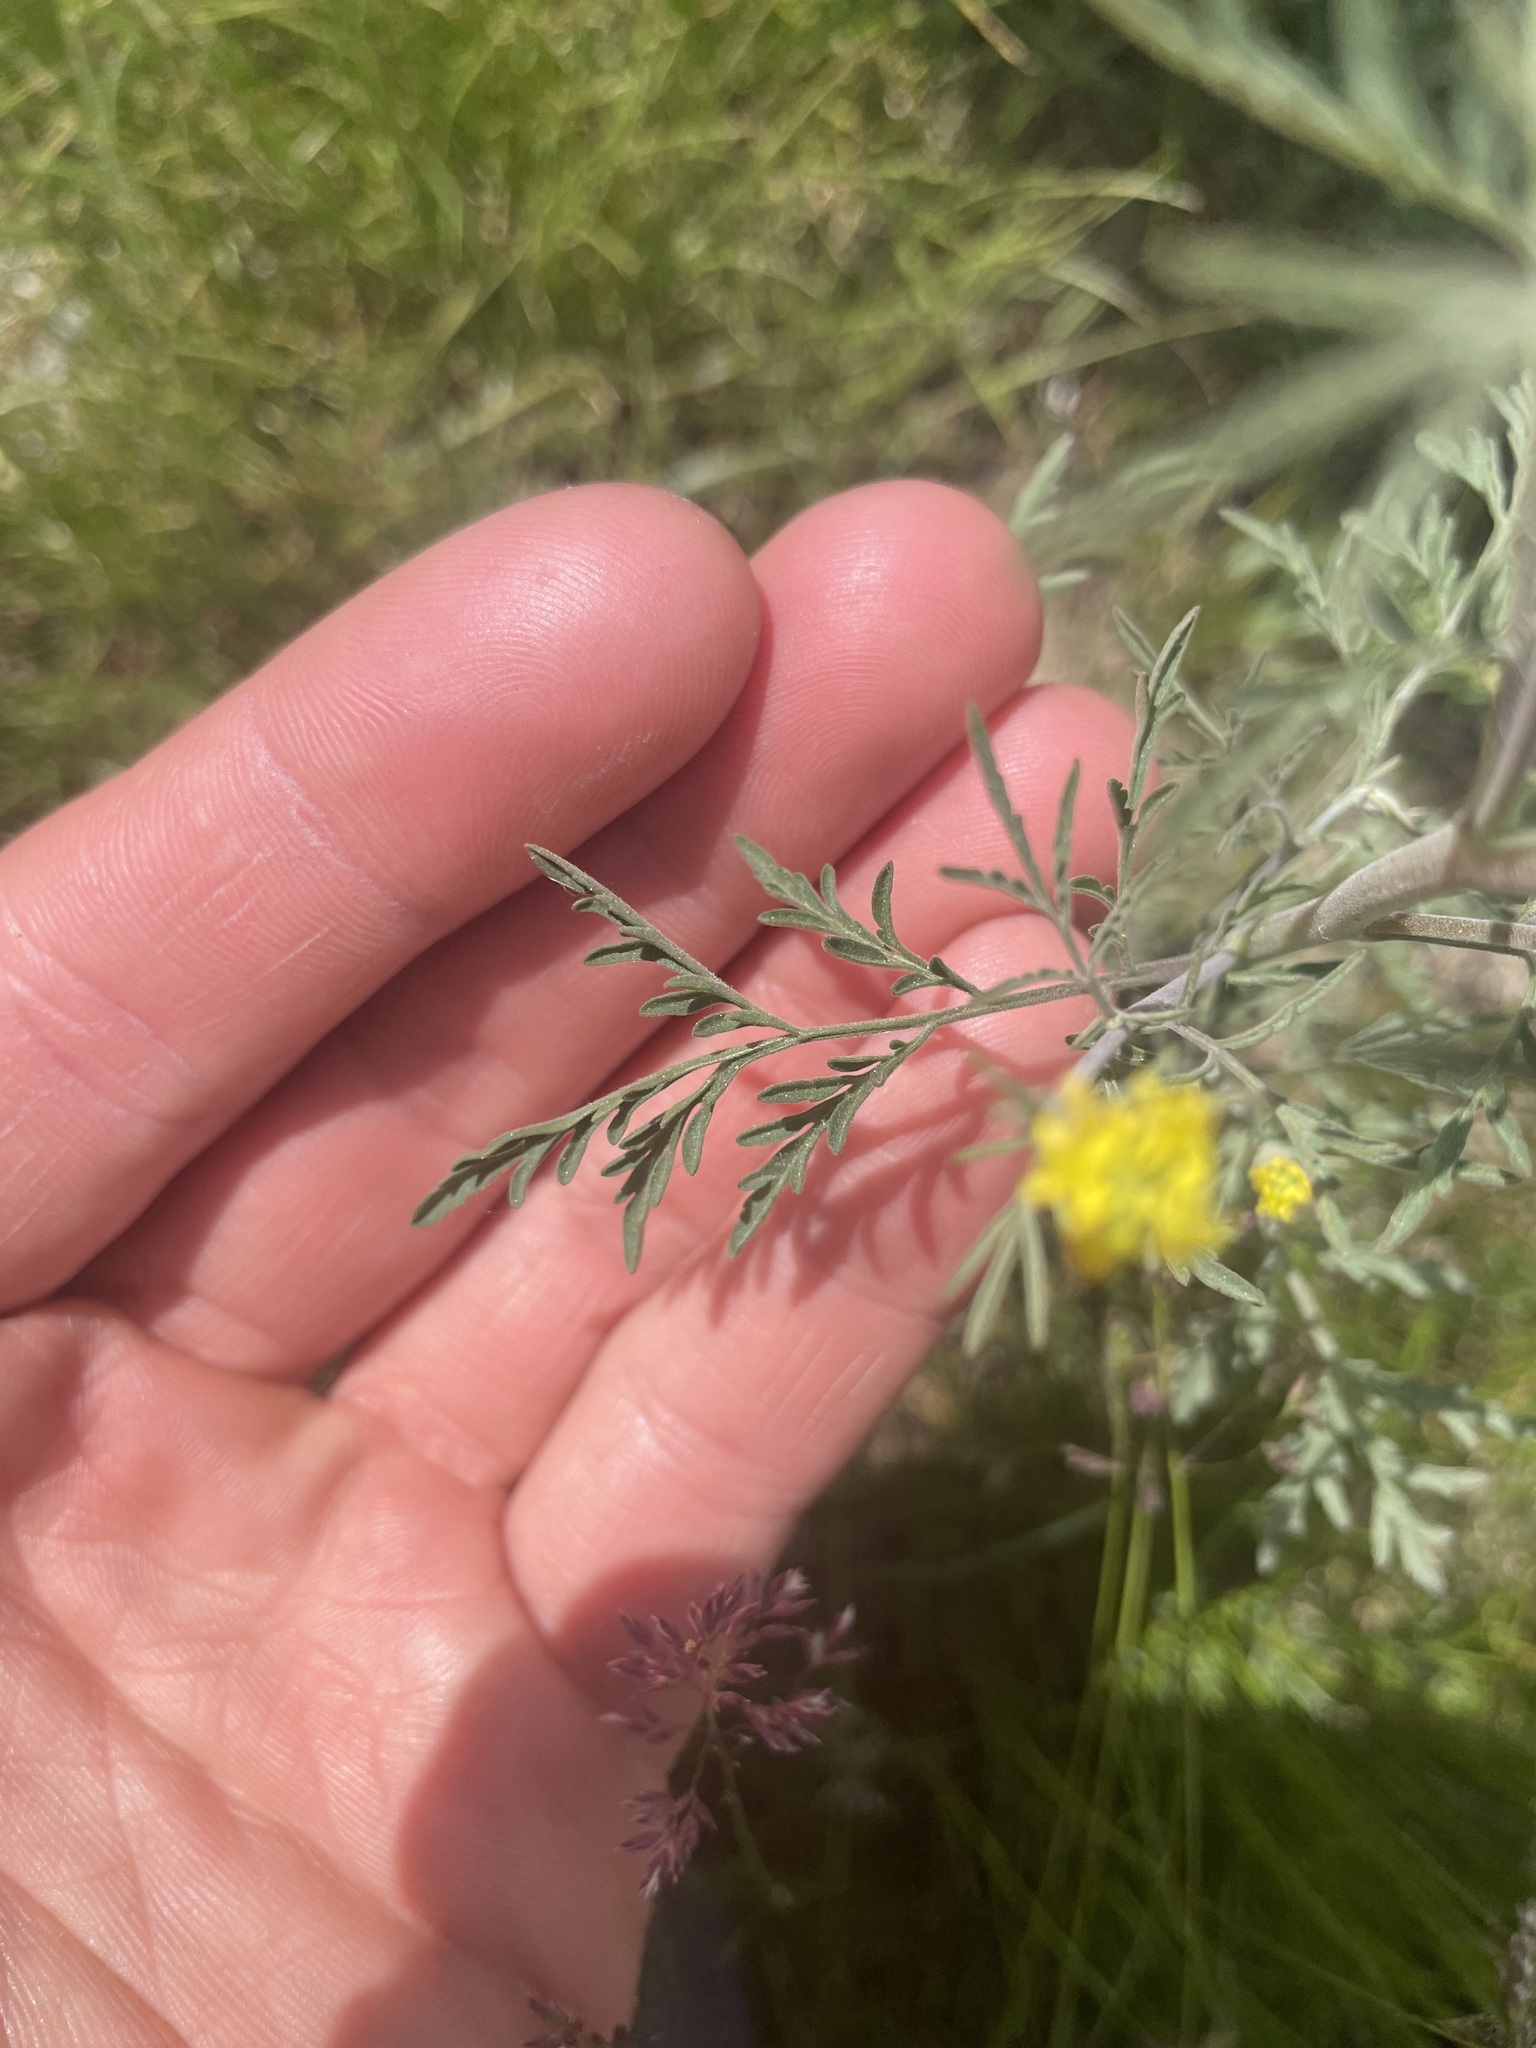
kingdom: Plantae
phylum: Tracheophyta
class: Magnoliopsida
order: Brassicales
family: Brassicaceae
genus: Descurainia
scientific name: Descurainia sophia
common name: Flixweed
